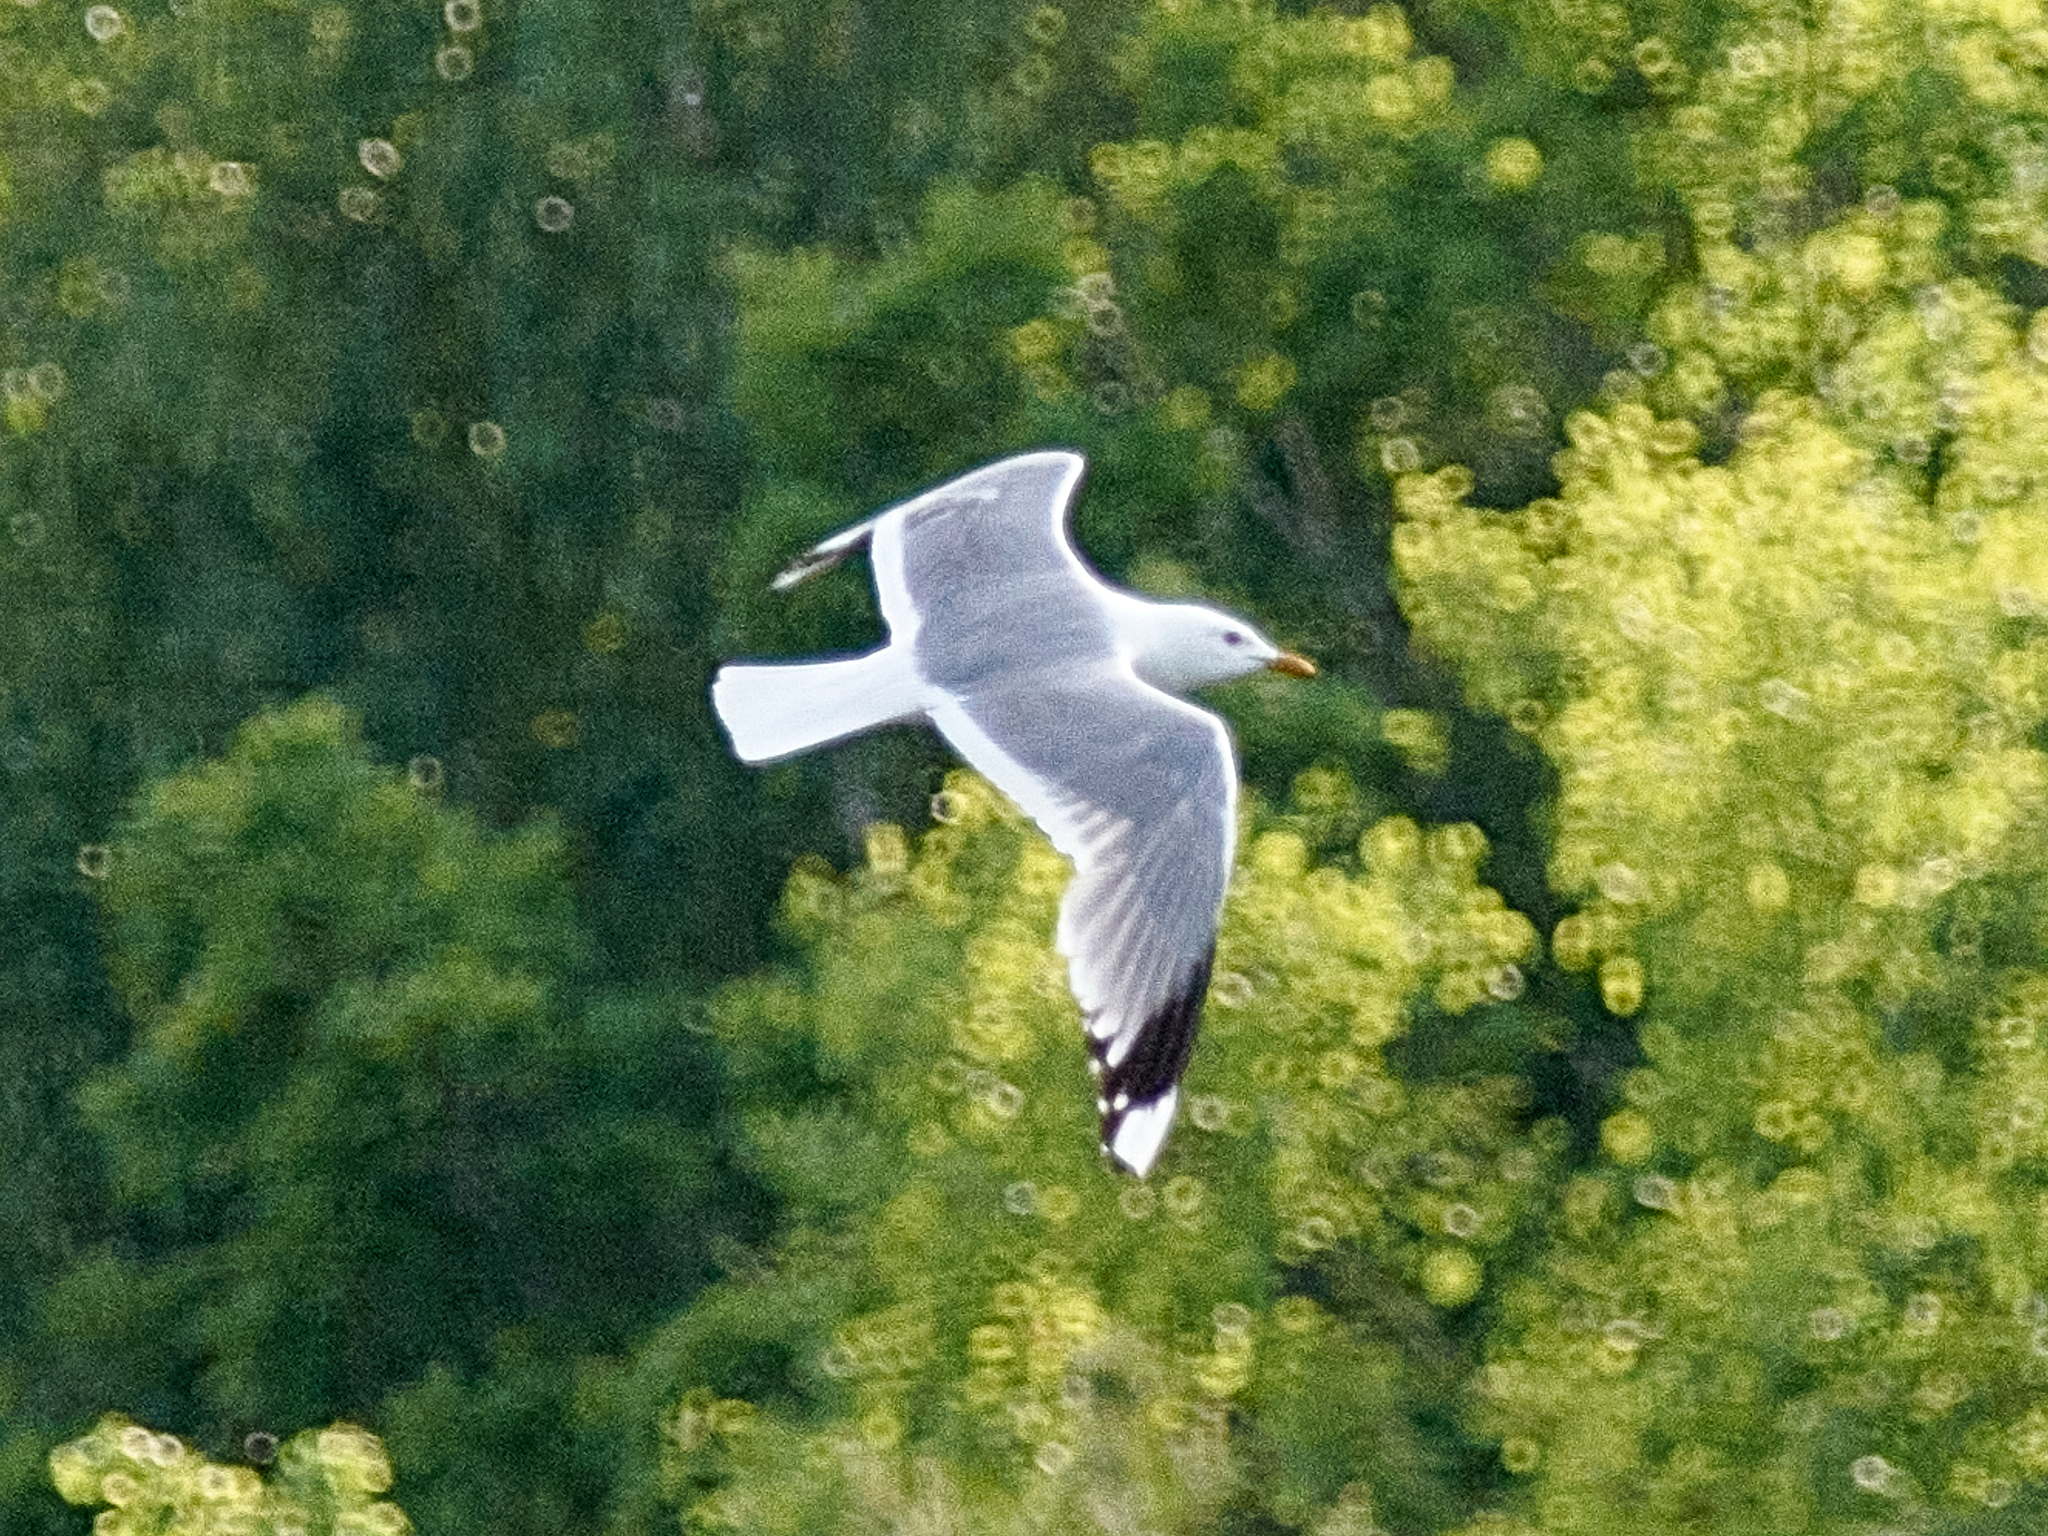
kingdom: Animalia
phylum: Chordata
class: Aves
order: Charadriiformes
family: Laridae
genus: Larus
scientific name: Larus canus
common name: Mew gull
